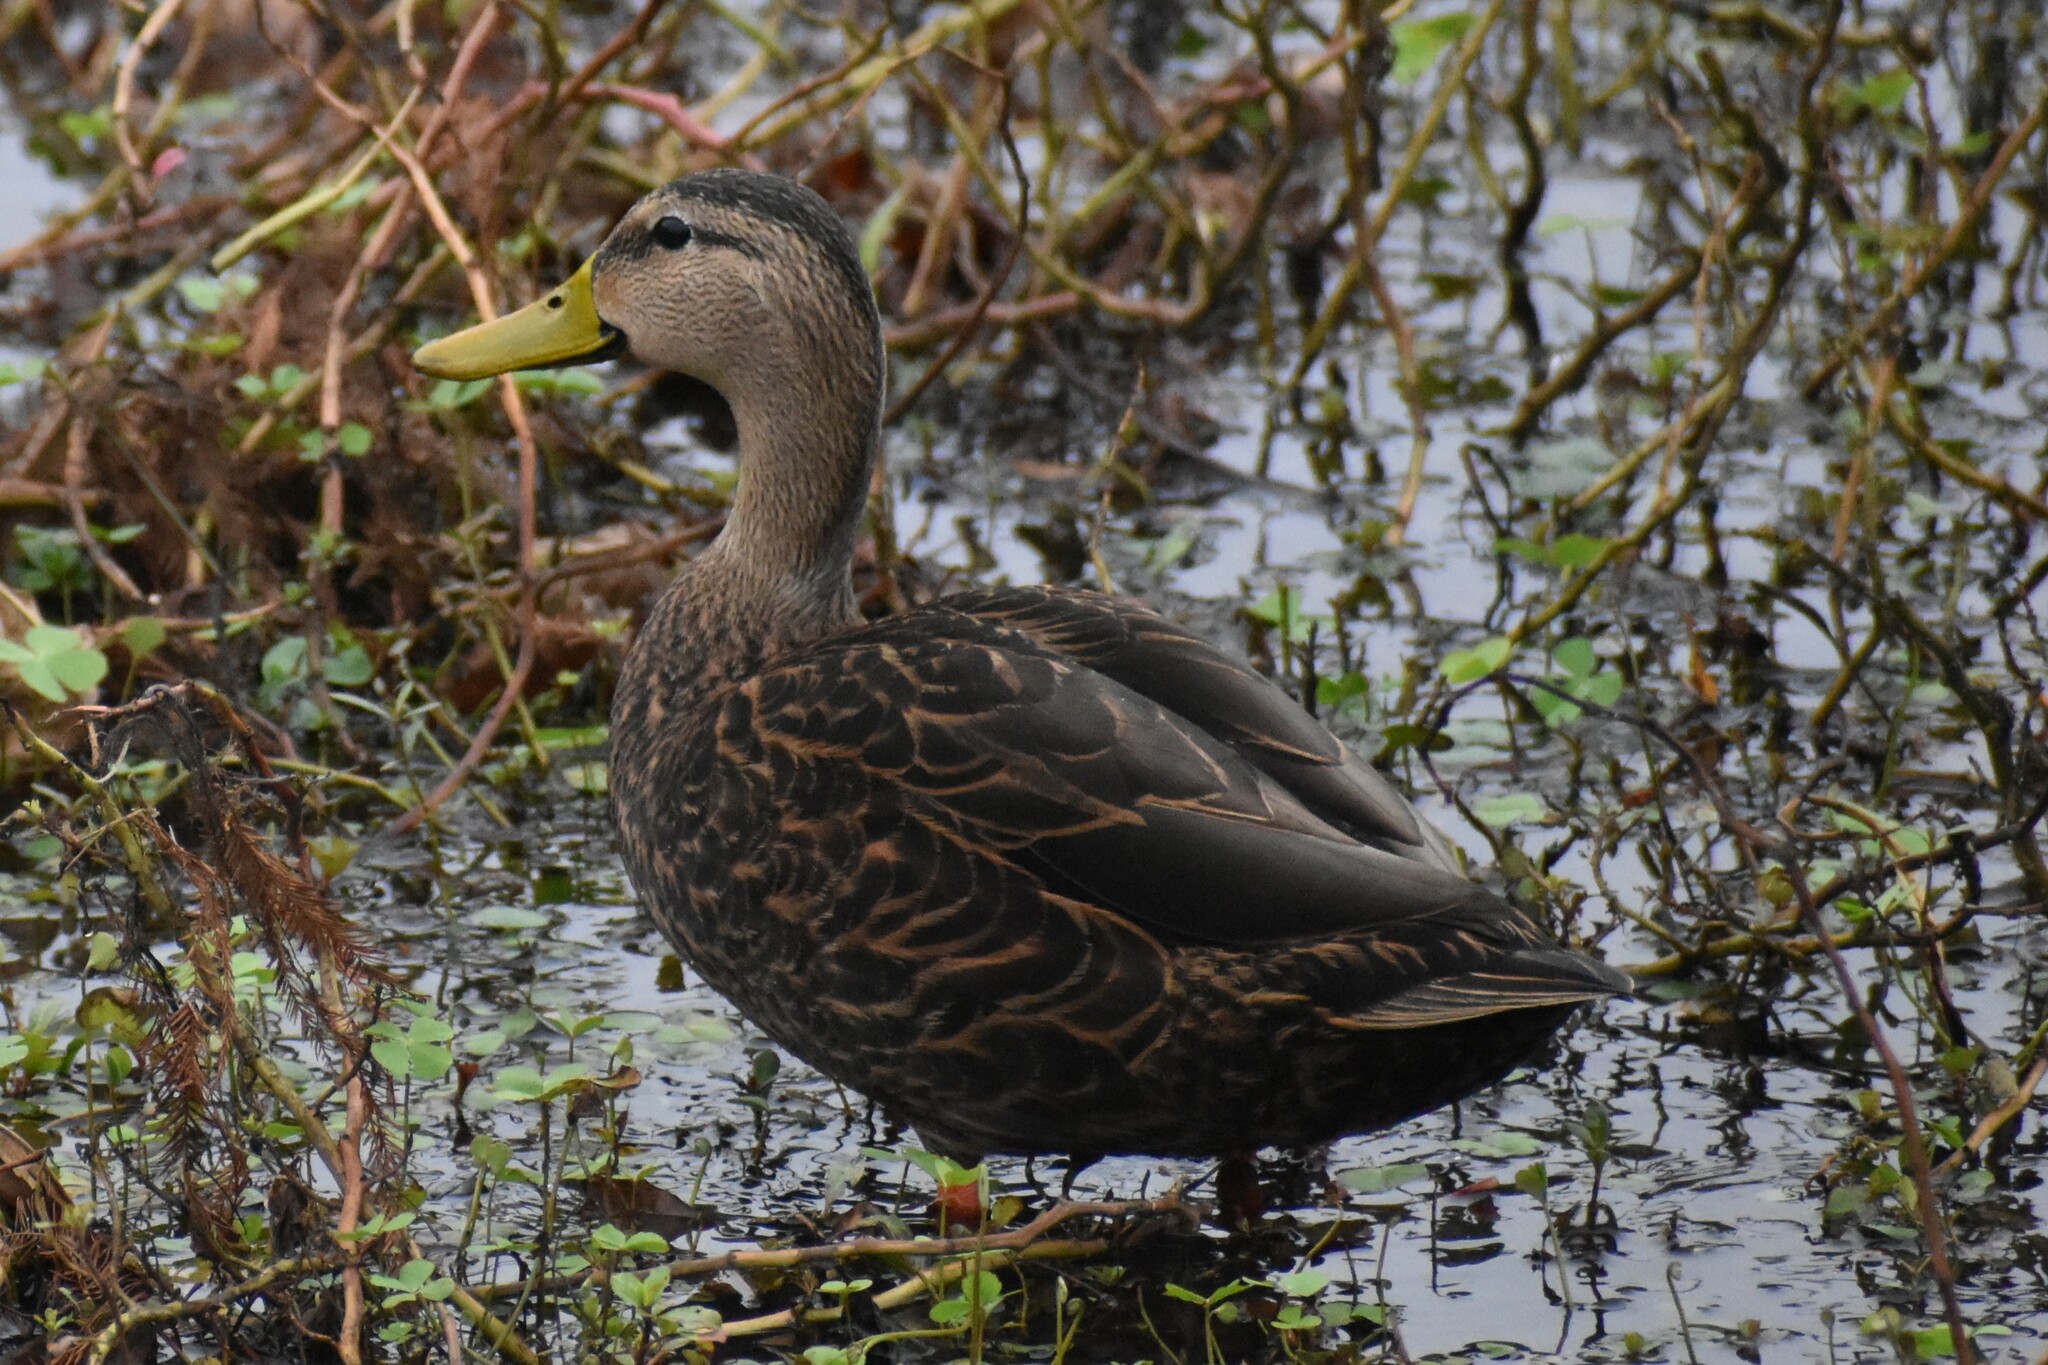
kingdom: Animalia
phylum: Chordata
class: Aves
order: Anseriformes
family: Anatidae
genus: Anas
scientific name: Anas fulvigula
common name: Mottled duck
